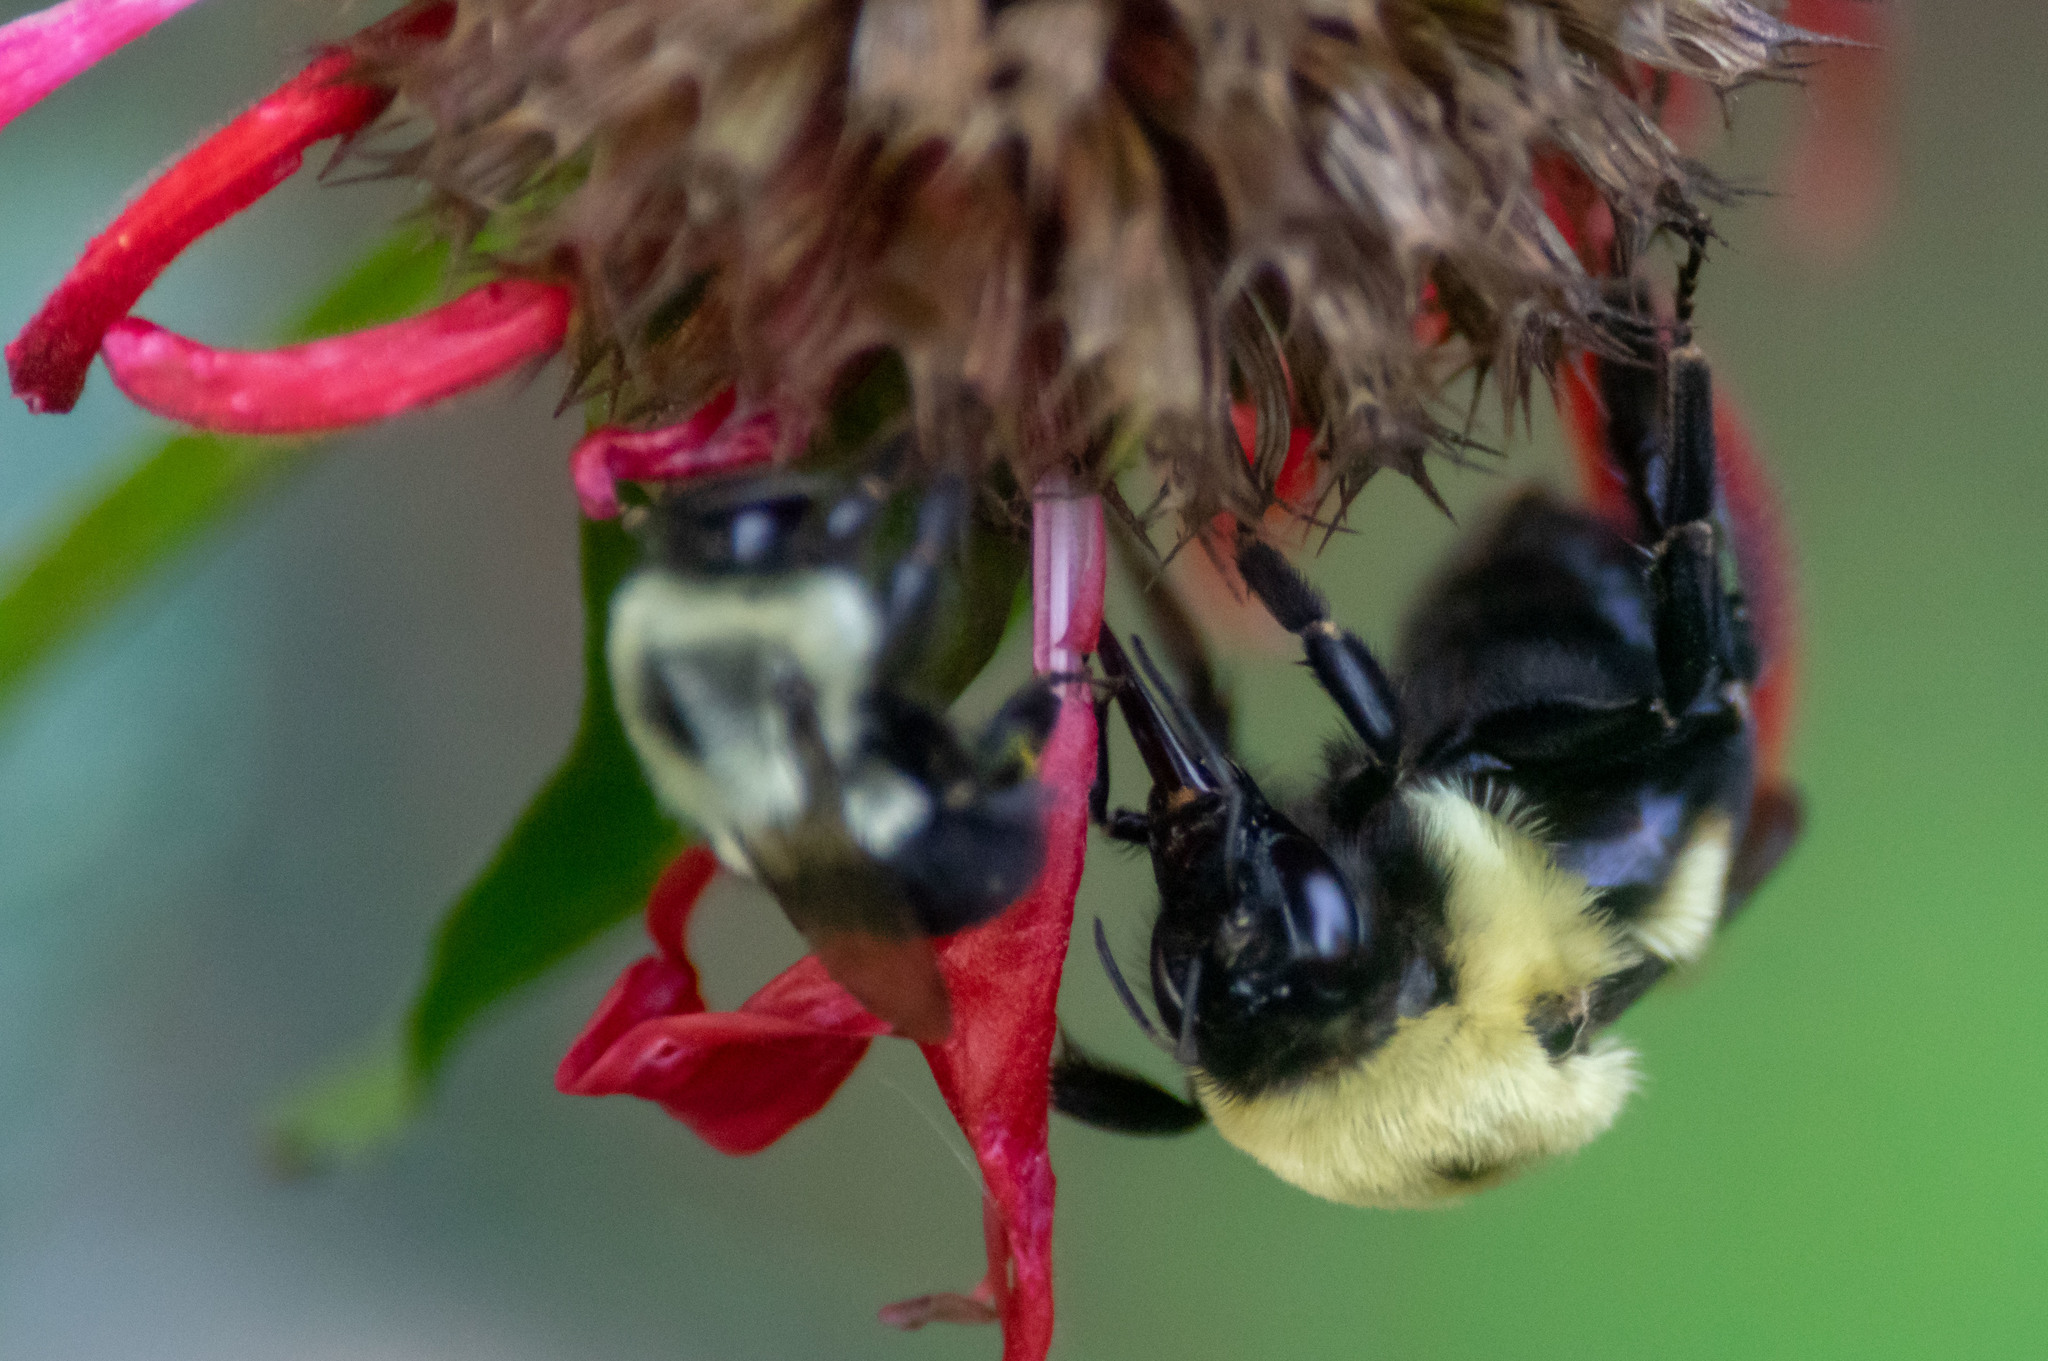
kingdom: Animalia
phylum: Arthropoda
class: Insecta
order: Hymenoptera
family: Apidae
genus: Bombus
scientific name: Bombus griseocollis
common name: Brown-belted bumble bee
